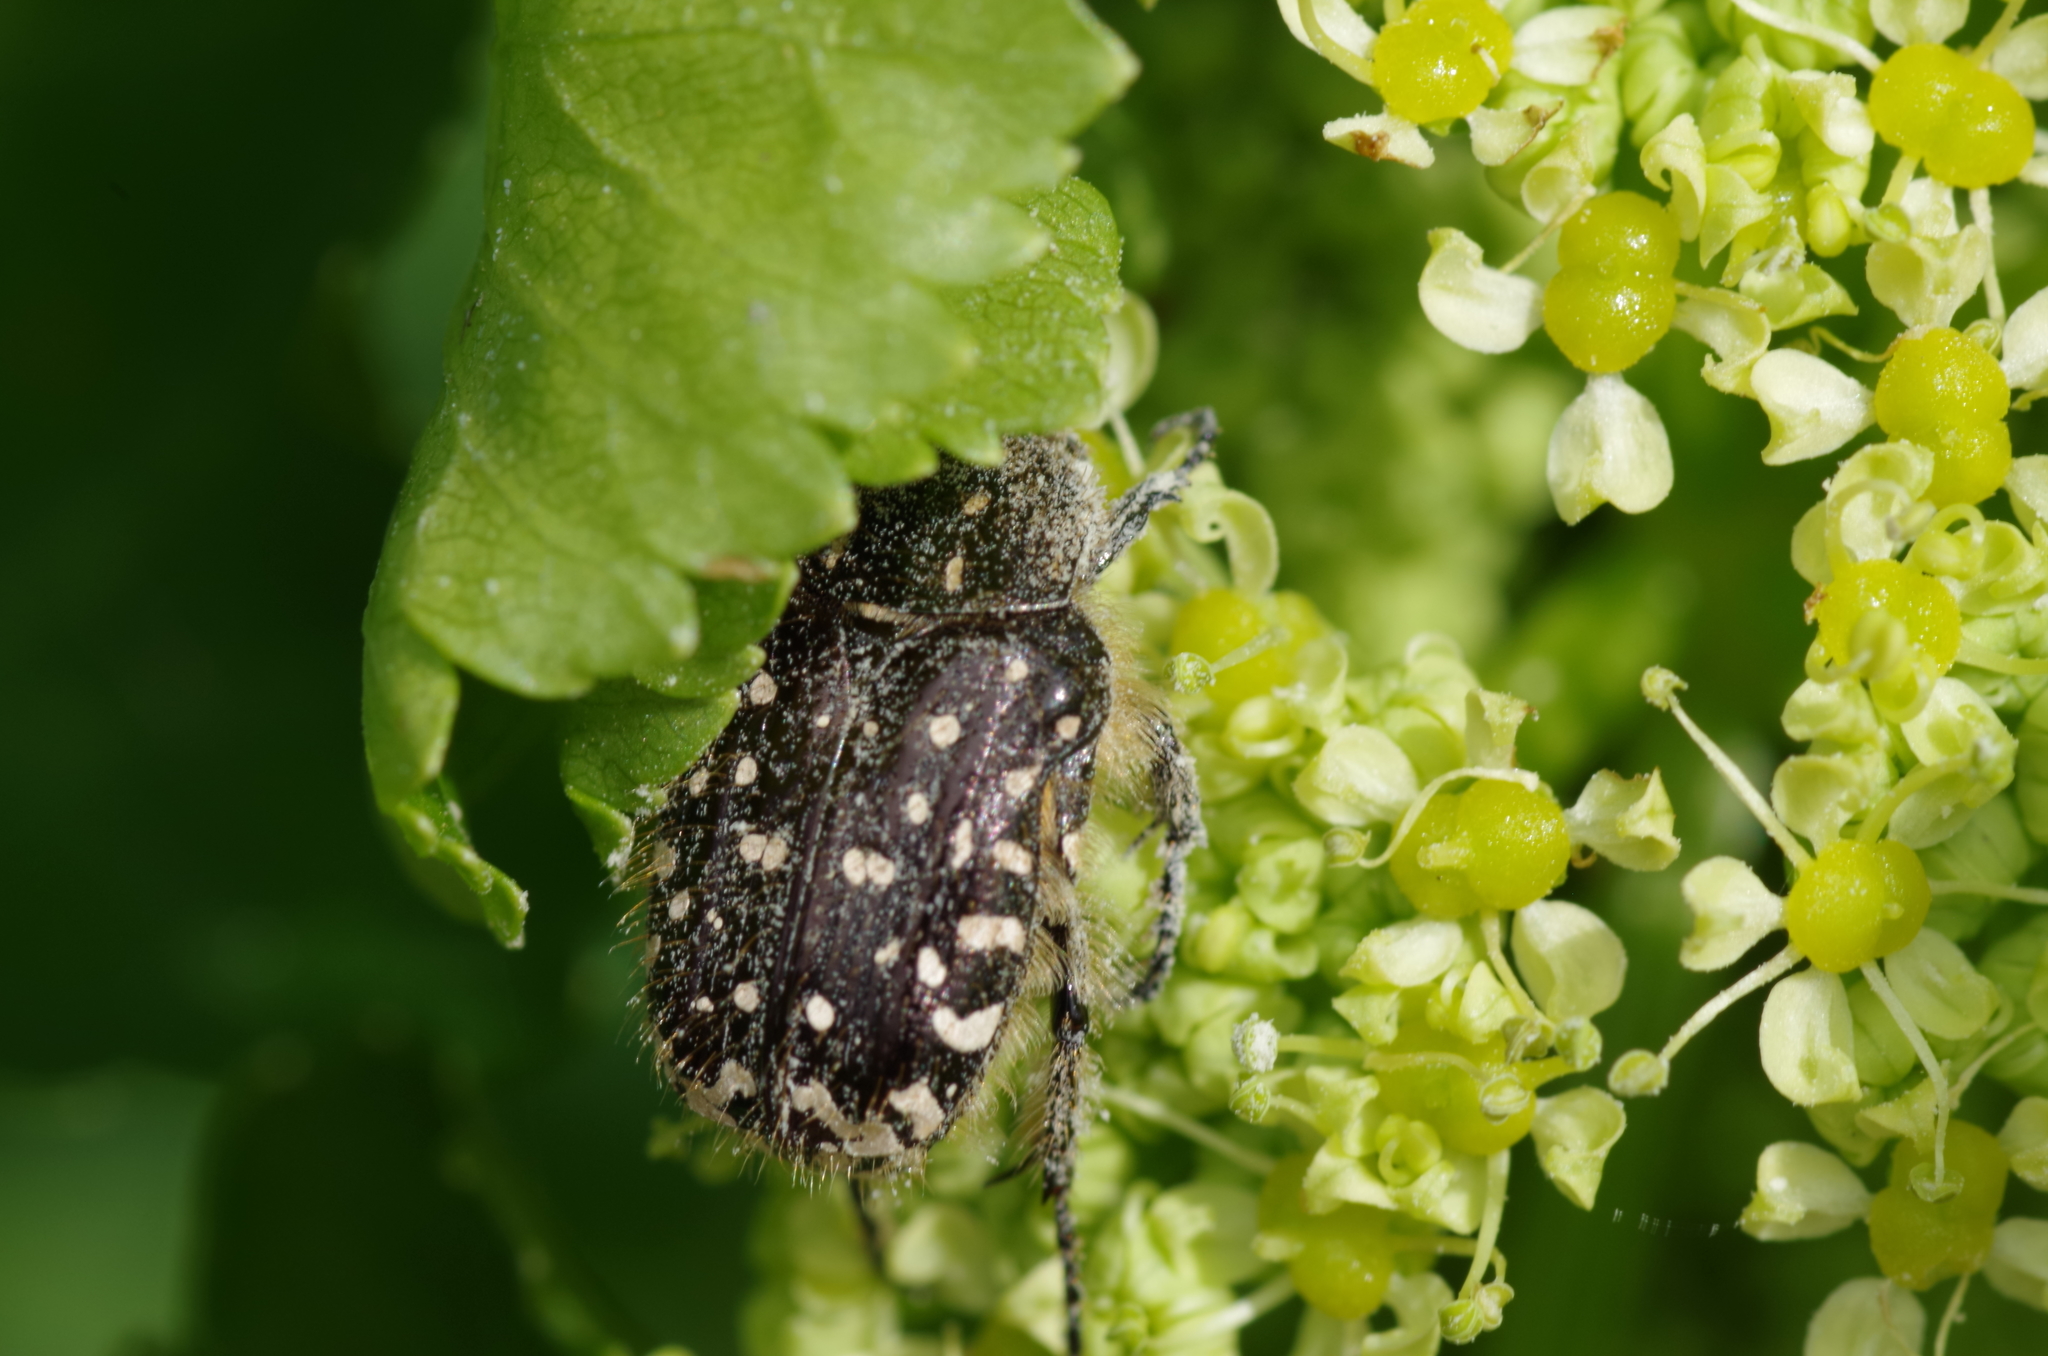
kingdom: Animalia
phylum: Arthropoda
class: Insecta
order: Coleoptera
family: Scarabaeidae
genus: Oxythyrea
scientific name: Oxythyrea funesta
